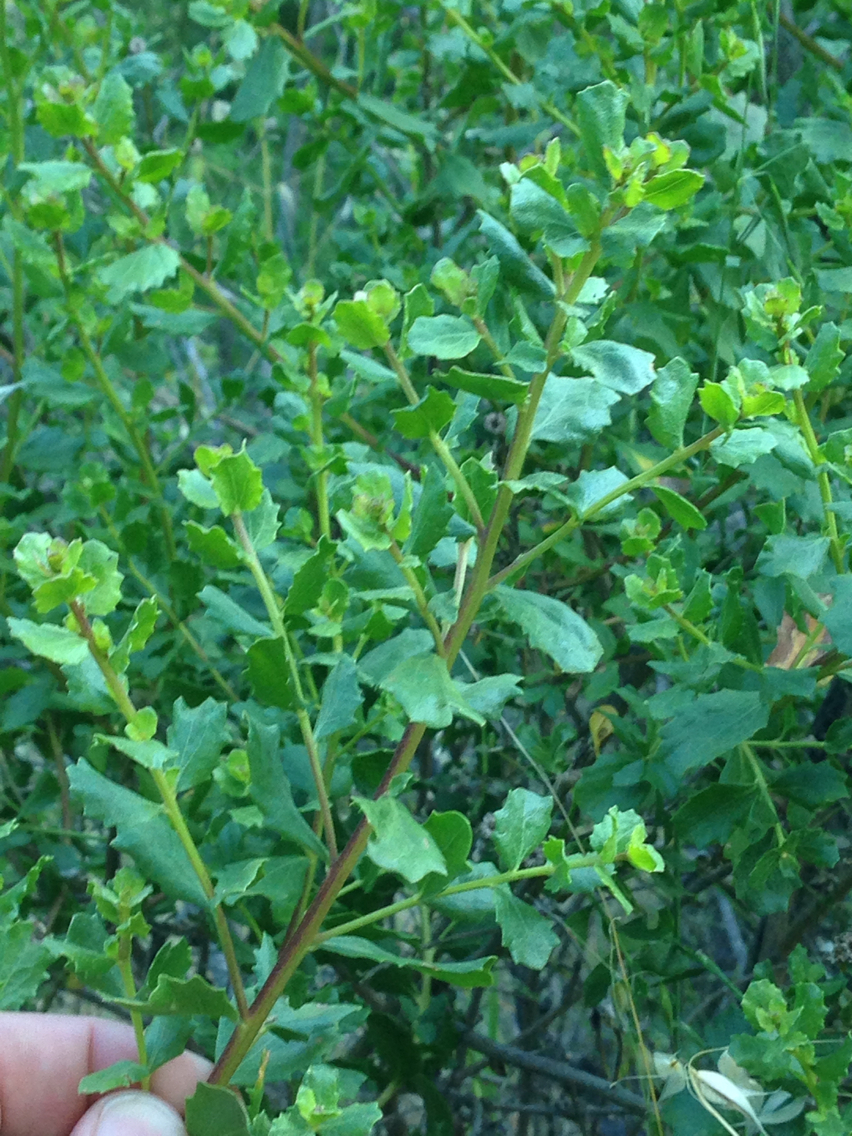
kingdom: Plantae
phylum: Tracheophyta
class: Magnoliopsida
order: Asterales
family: Asteraceae
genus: Baccharis
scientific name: Baccharis pilularis
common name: Coyotebrush
